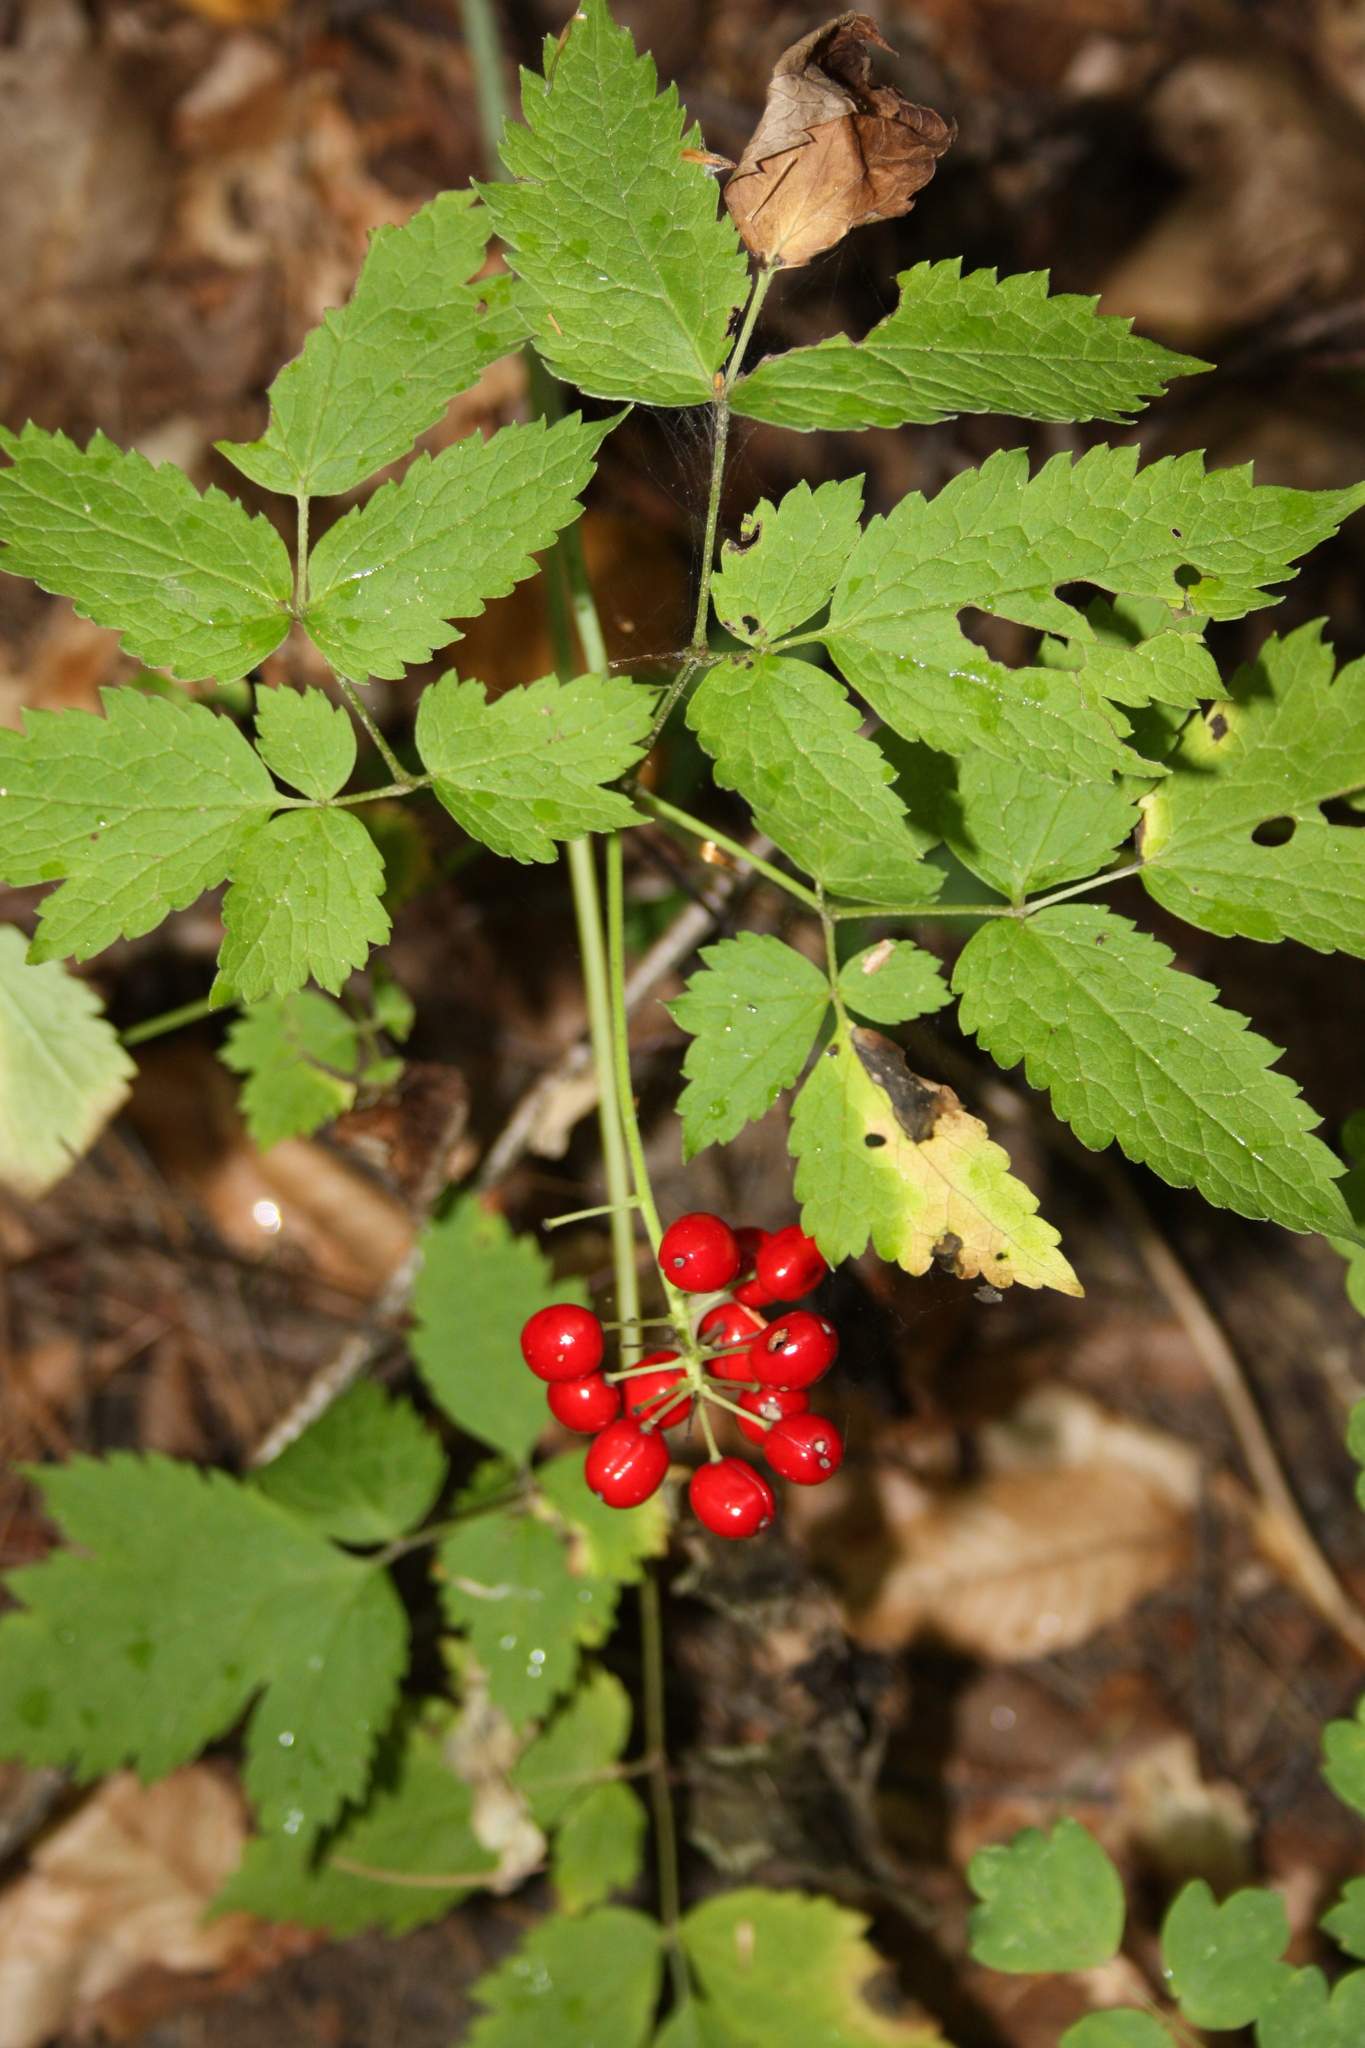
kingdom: Plantae
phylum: Tracheophyta
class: Magnoliopsida
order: Ranunculales
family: Ranunculaceae
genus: Actaea
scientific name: Actaea rubra
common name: Red baneberry
